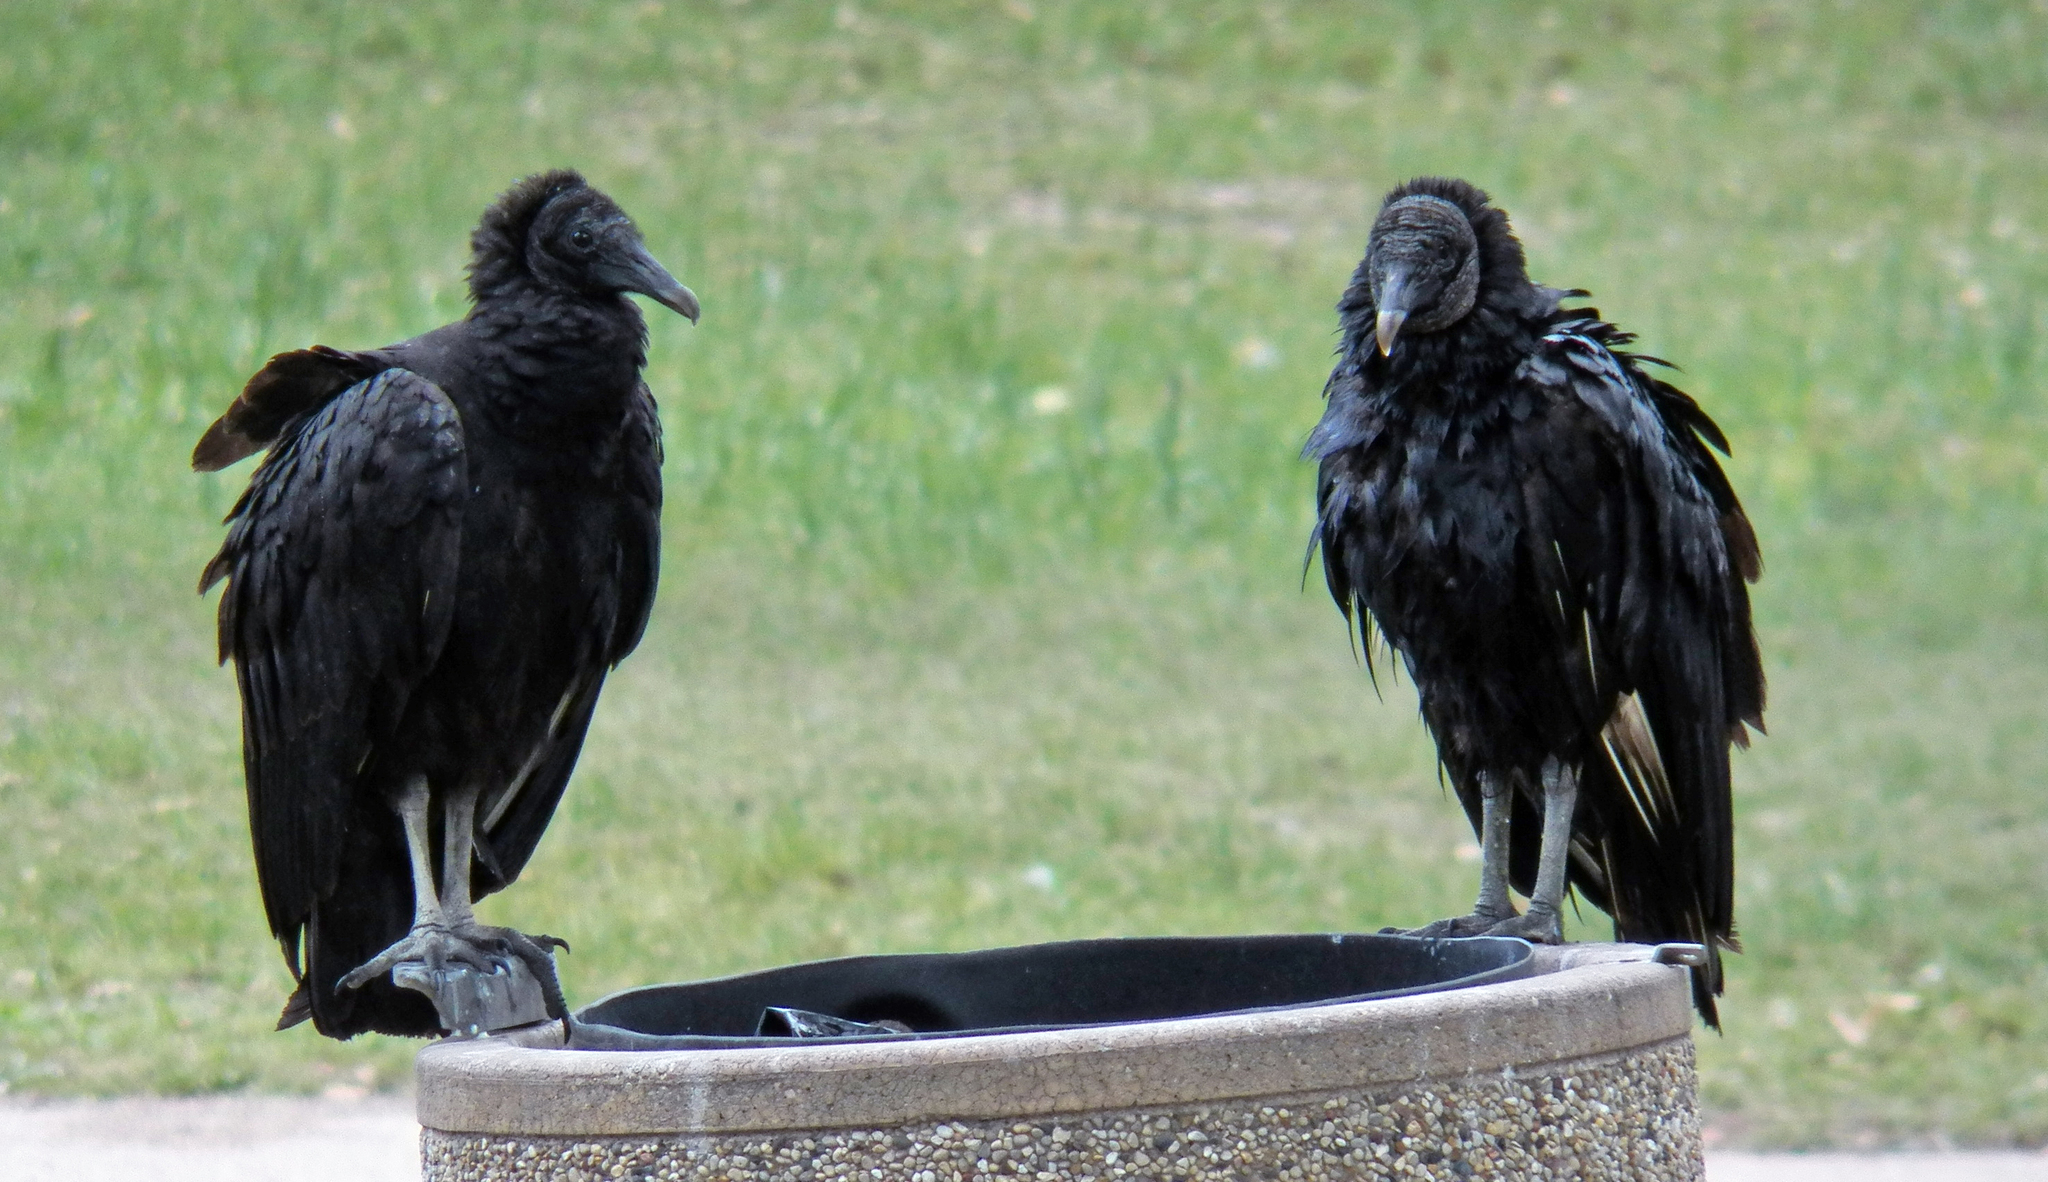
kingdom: Animalia
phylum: Chordata
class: Aves
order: Accipitriformes
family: Cathartidae
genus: Coragyps
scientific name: Coragyps atratus
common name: Black vulture
